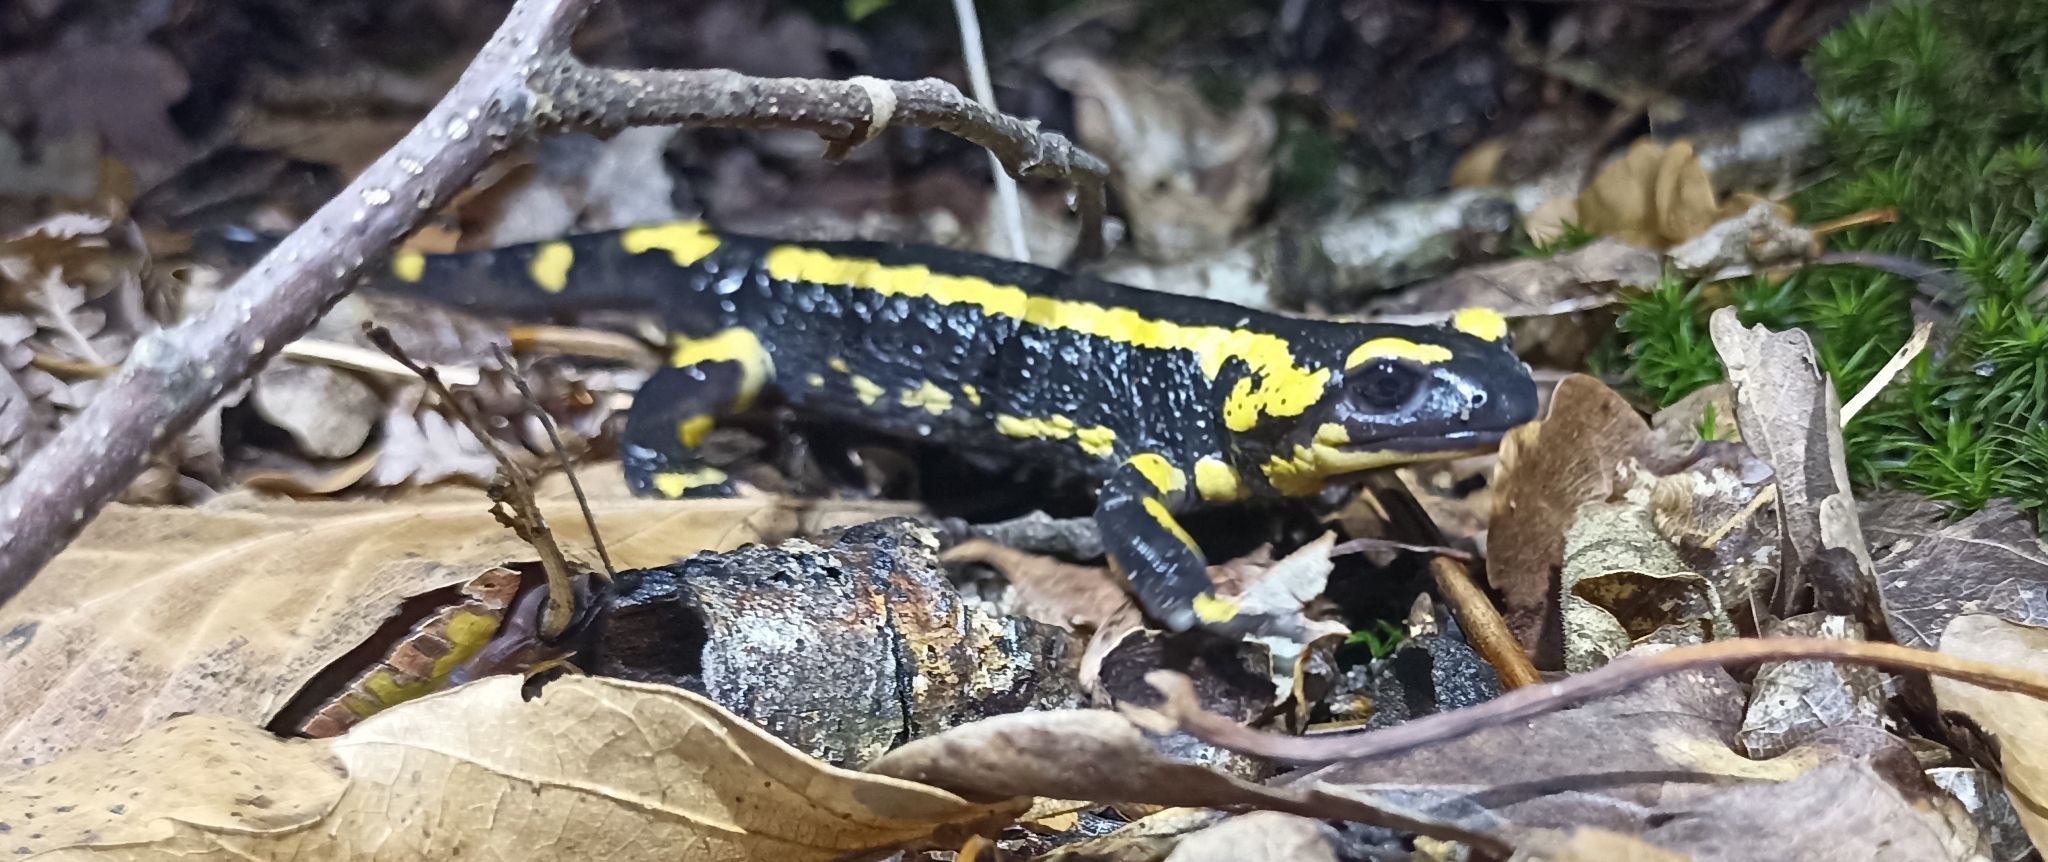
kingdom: Animalia
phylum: Chordata
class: Amphibia
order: Caudata
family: Salamandridae
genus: Salamandra
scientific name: Salamandra salamandra
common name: Fire salamander
